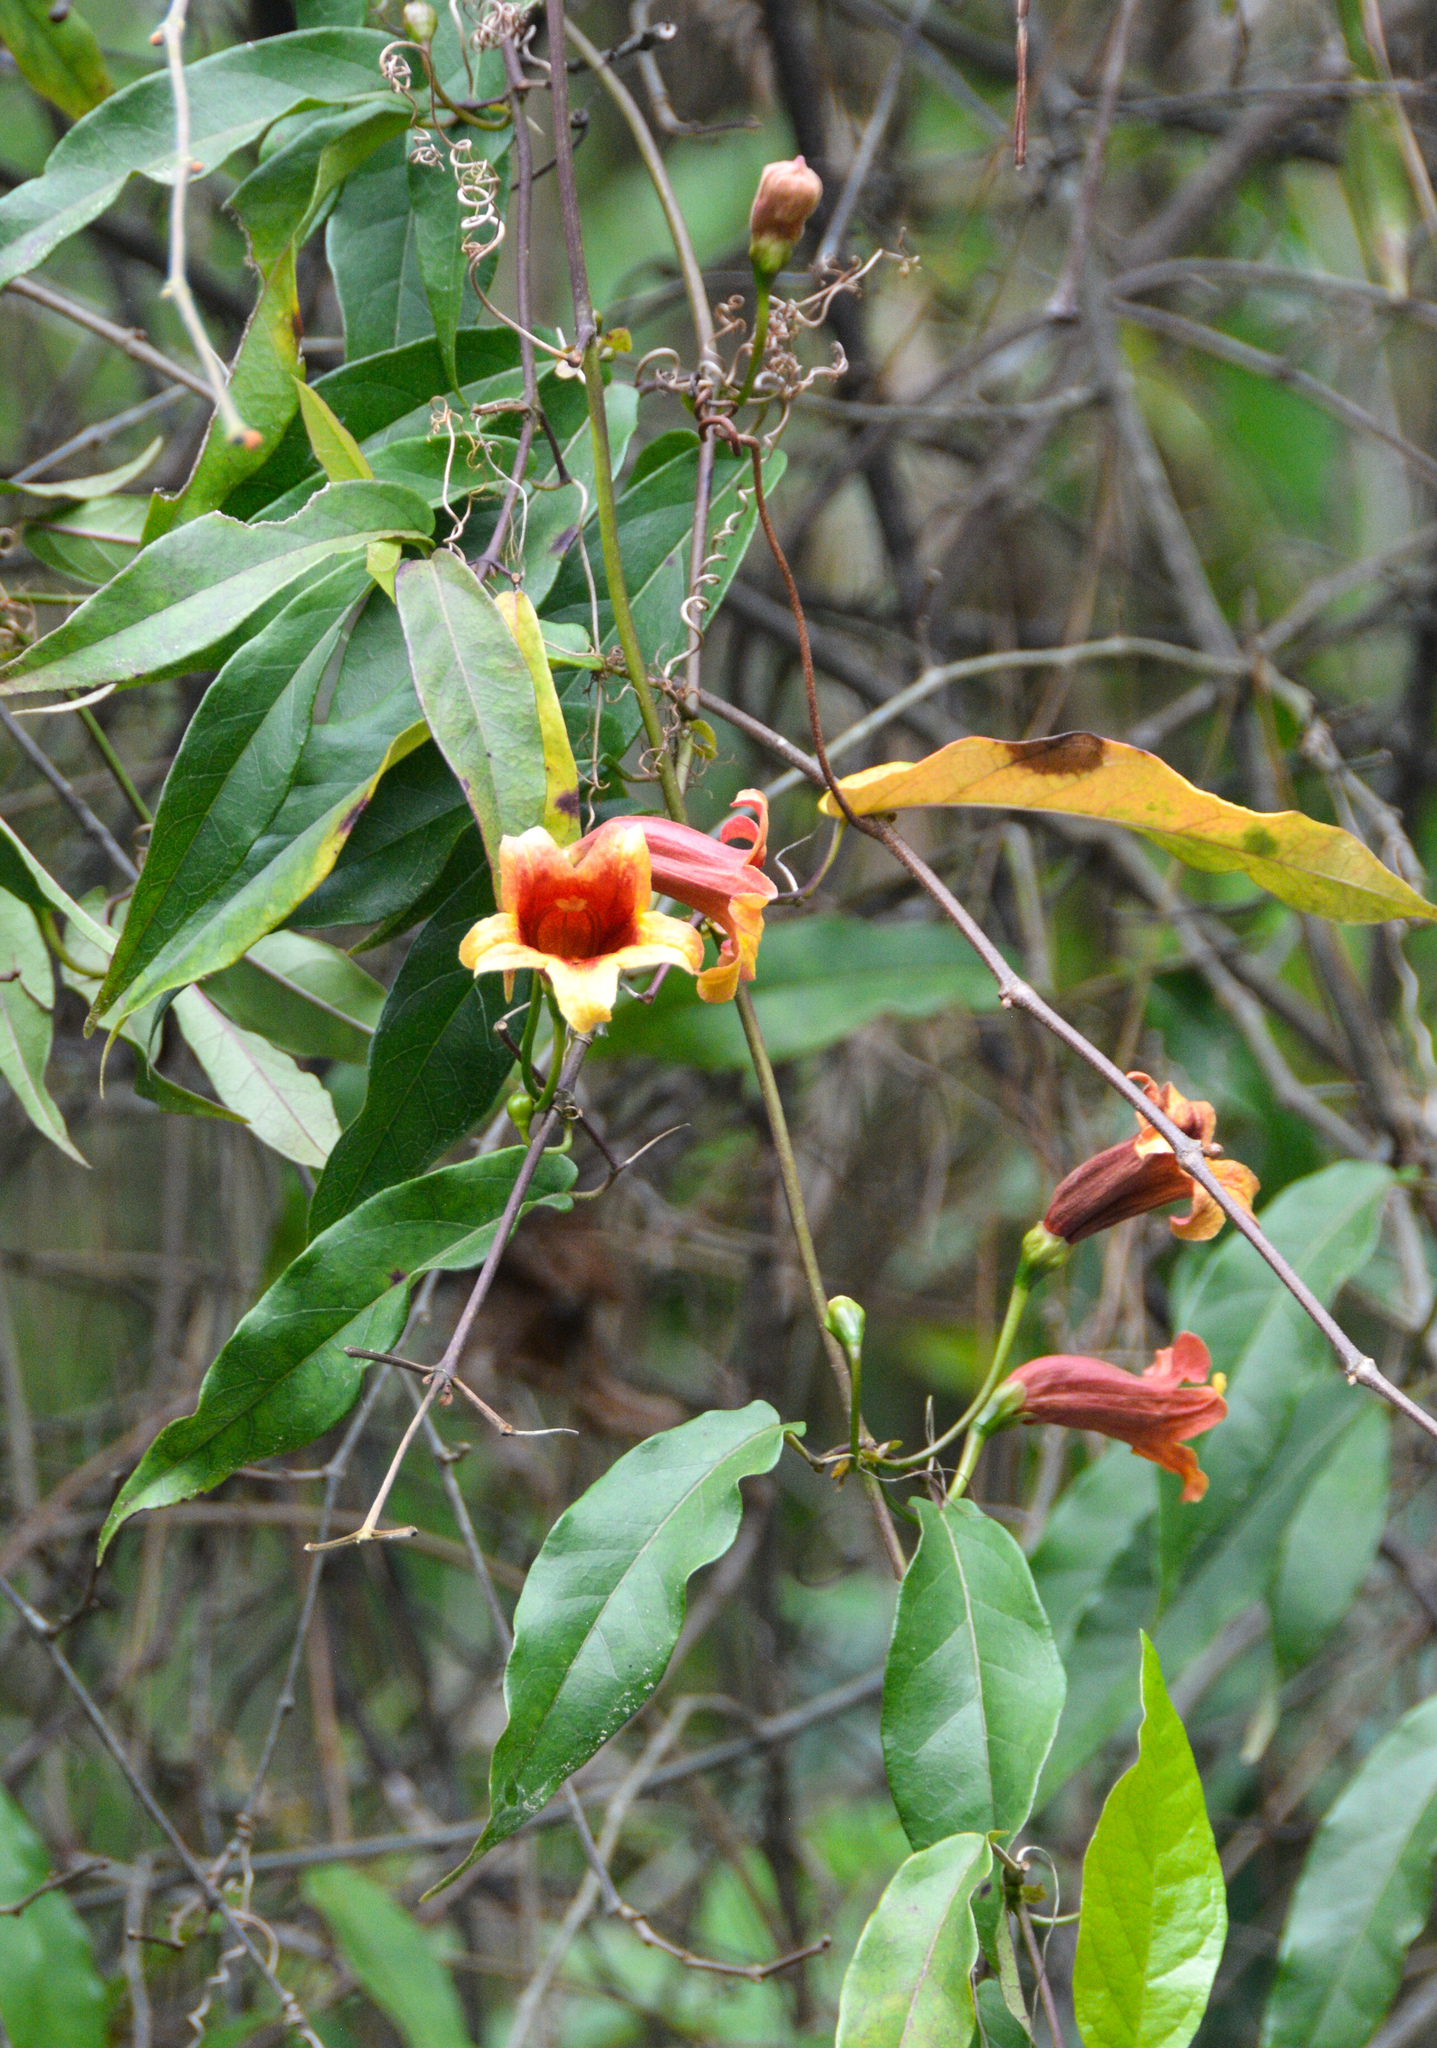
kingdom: Plantae
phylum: Tracheophyta
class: Magnoliopsida
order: Lamiales
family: Bignoniaceae
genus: Bignonia
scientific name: Bignonia capreolata
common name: Crossvine
